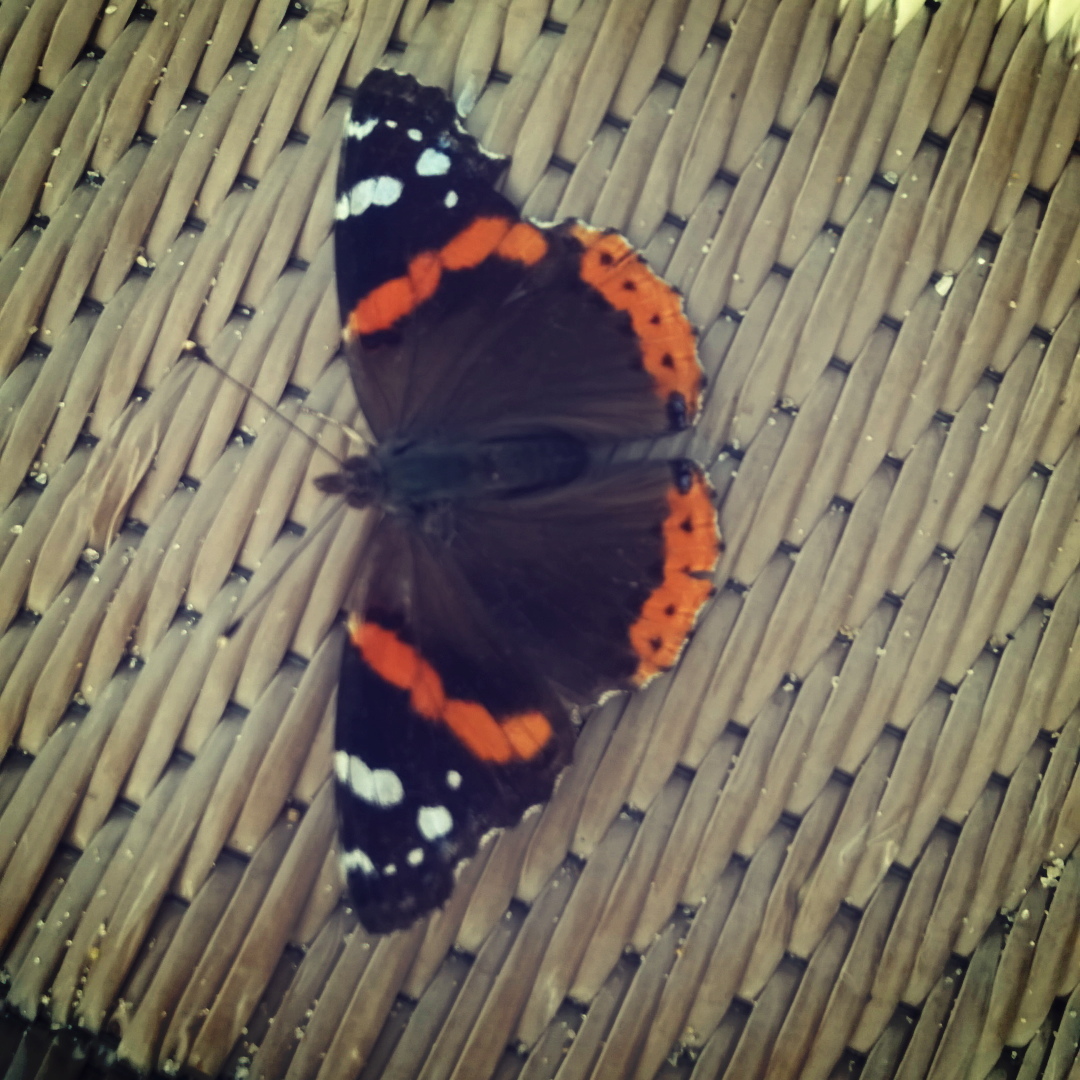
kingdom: Animalia
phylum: Arthropoda
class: Insecta
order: Lepidoptera
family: Nymphalidae
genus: Vanessa
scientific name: Vanessa atalanta
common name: Red admiral
